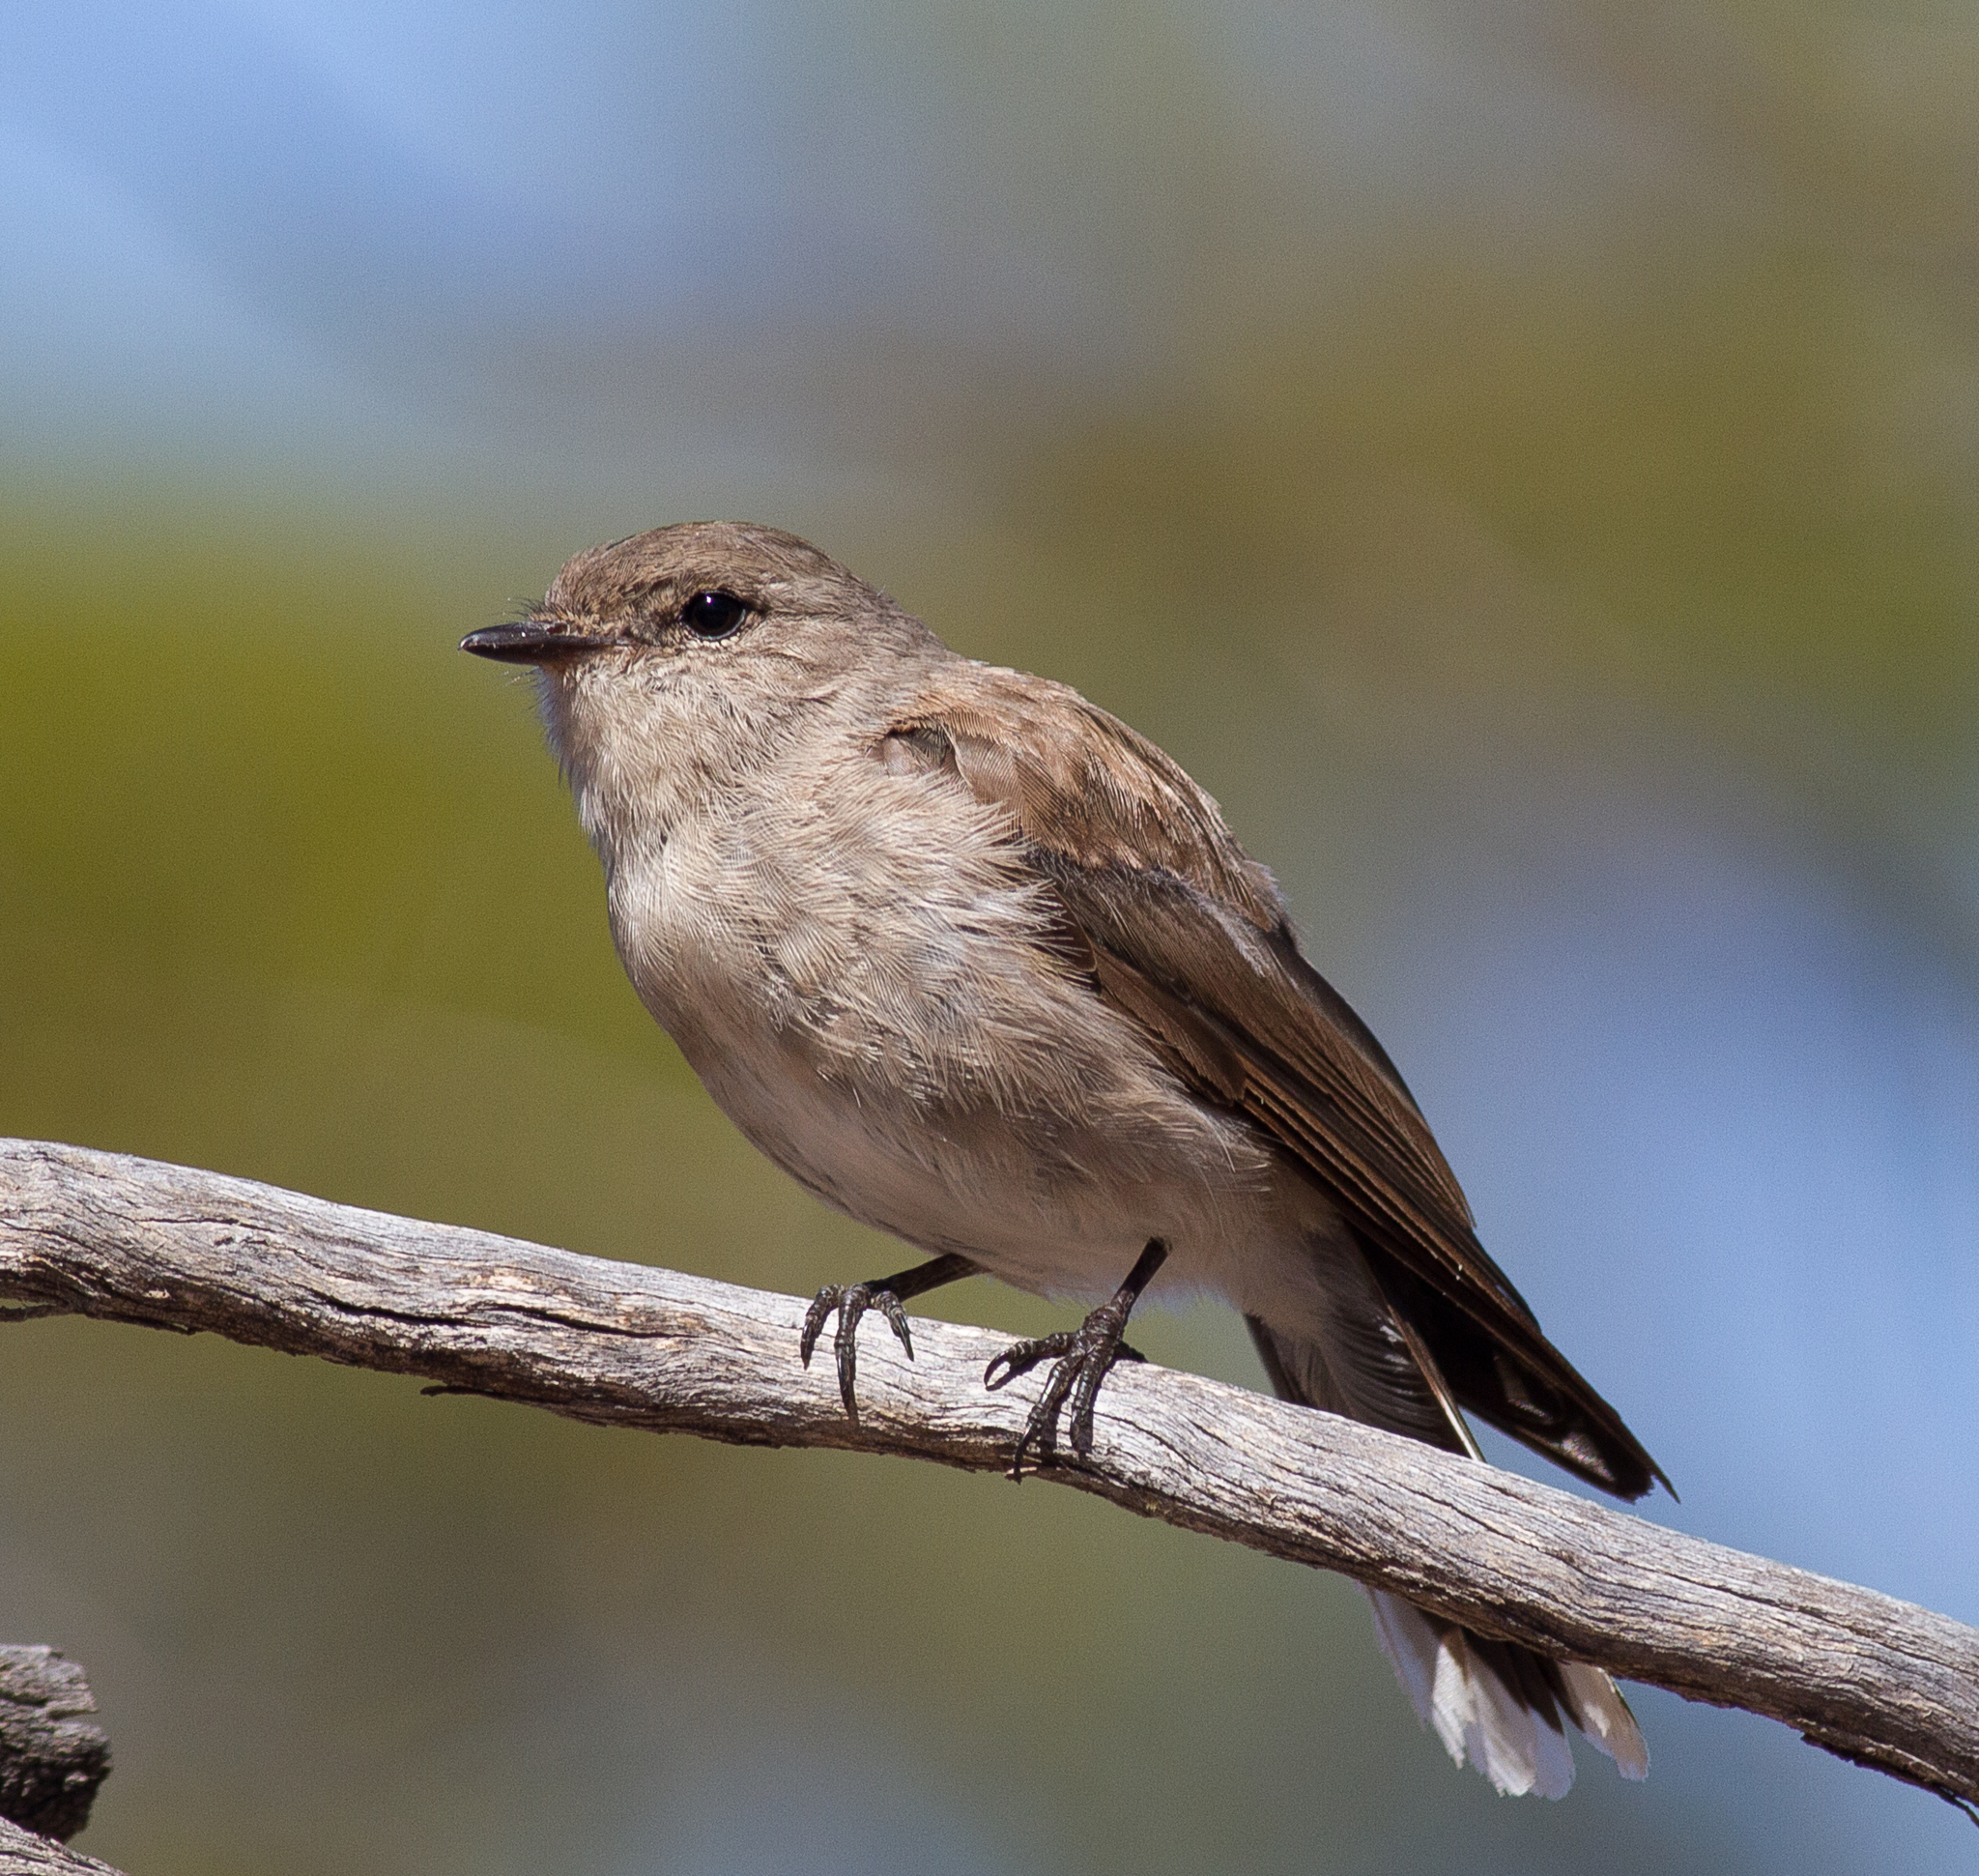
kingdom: Animalia
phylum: Chordata
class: Aves
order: Passeriformes
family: Petroicidae
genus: Microeca
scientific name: Microeca fascinans
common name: Jacky winter
